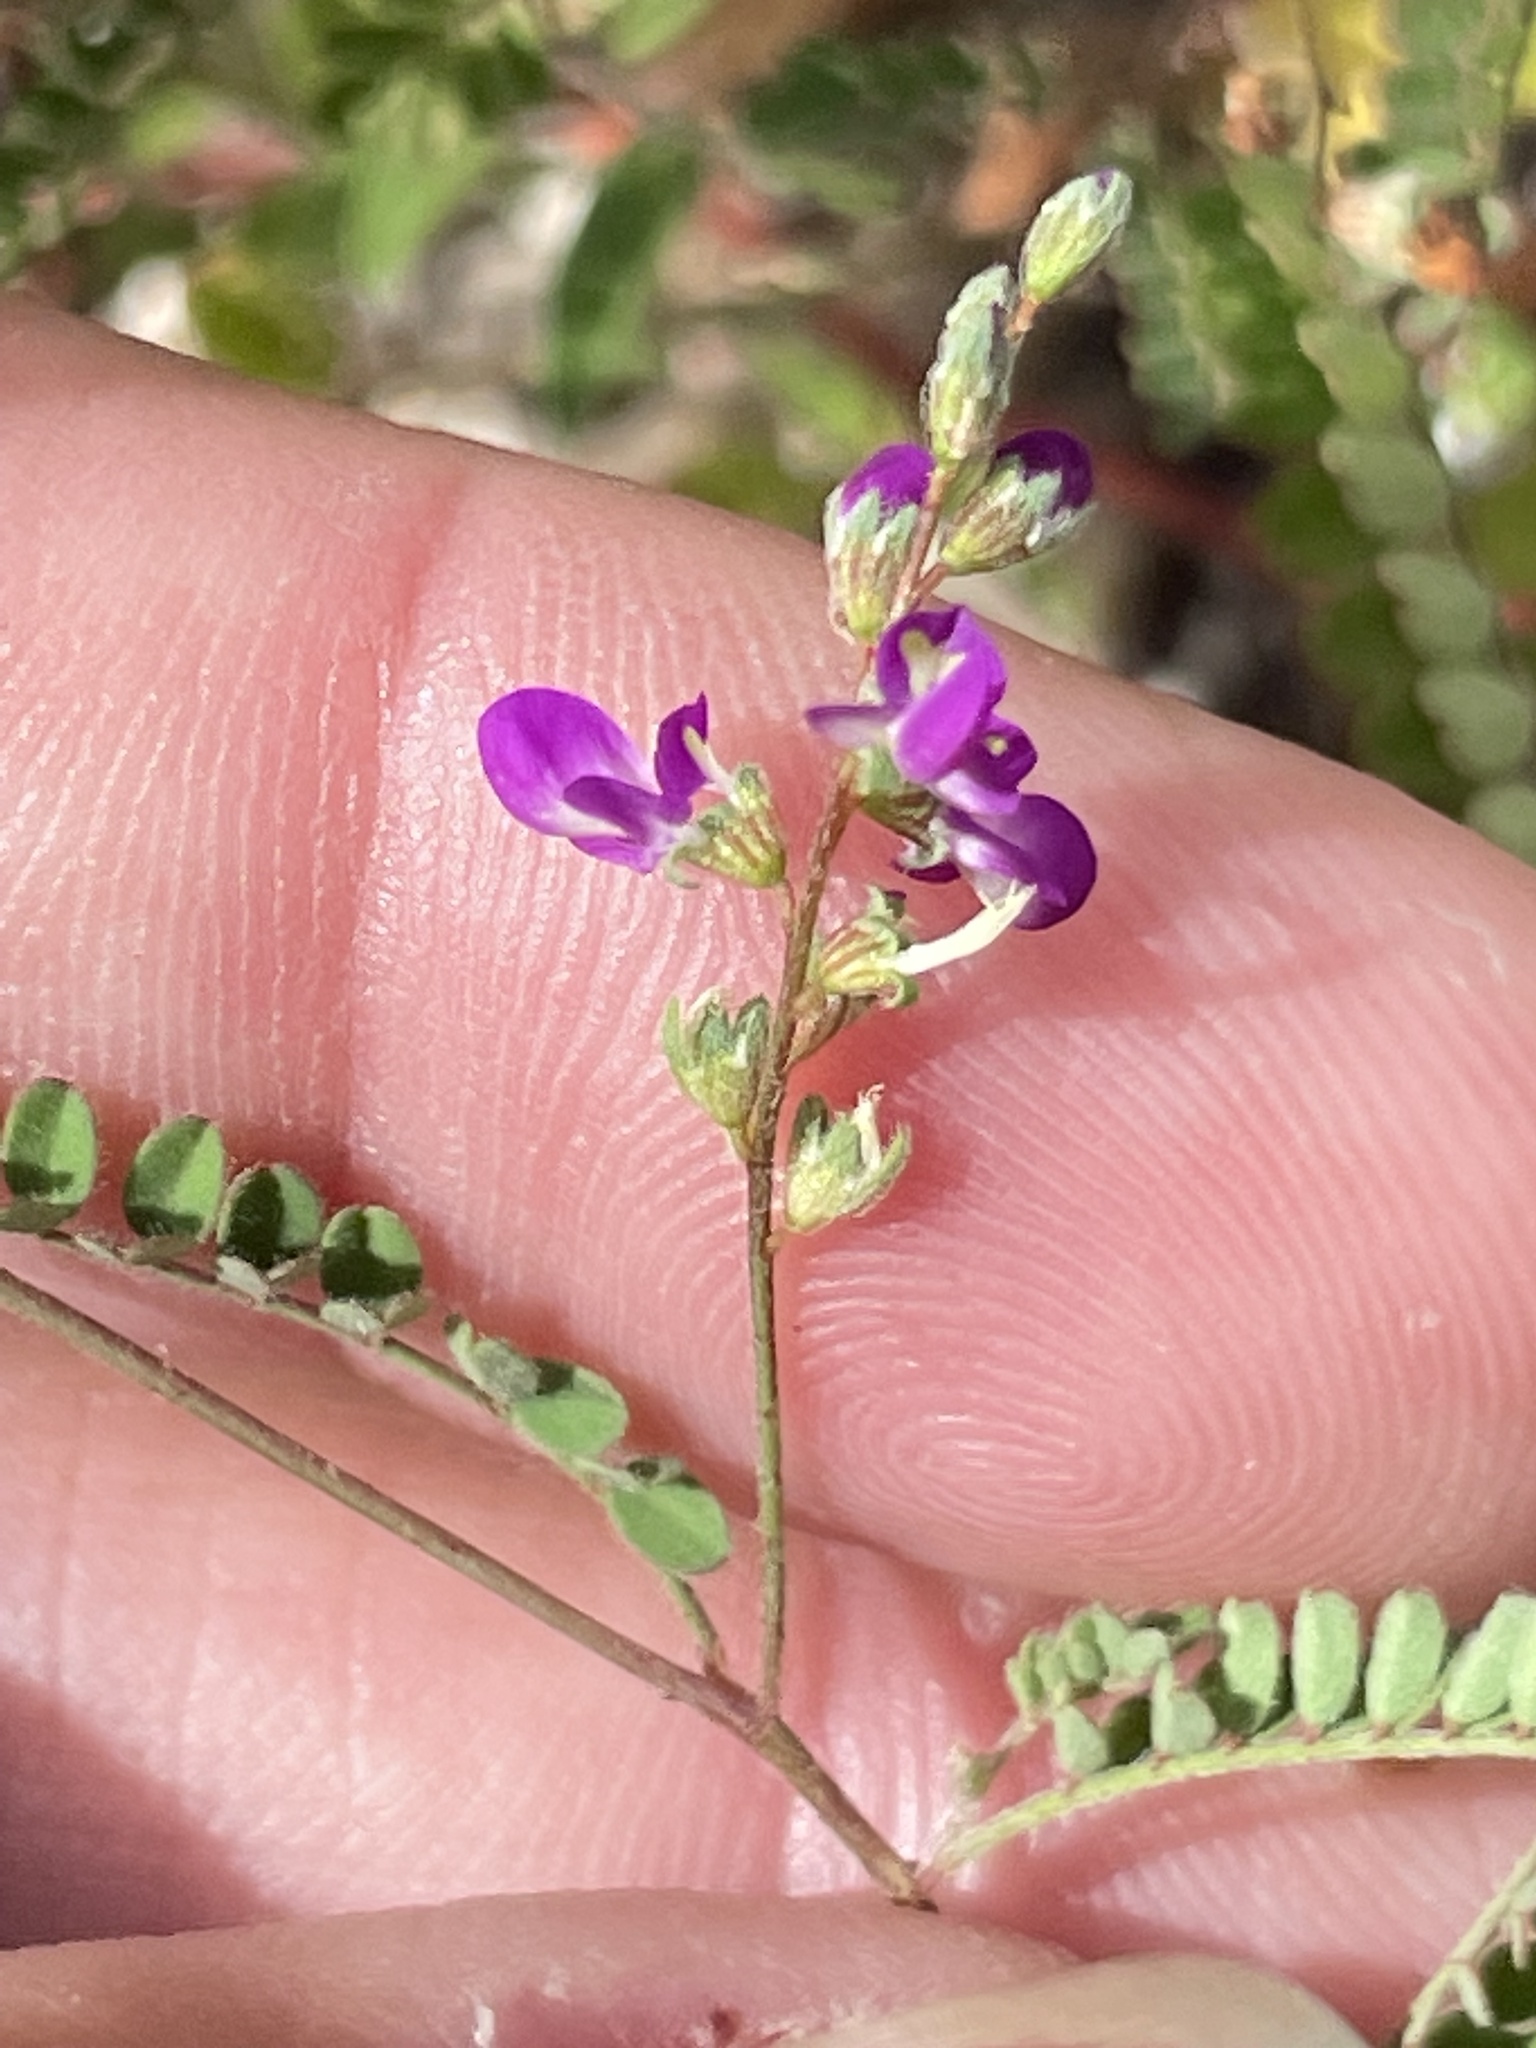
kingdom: Plantae
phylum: Tracheophyta
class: Magnoliopsida
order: Fabales
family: Fabaceae
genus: Marina
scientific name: Marina interstes
